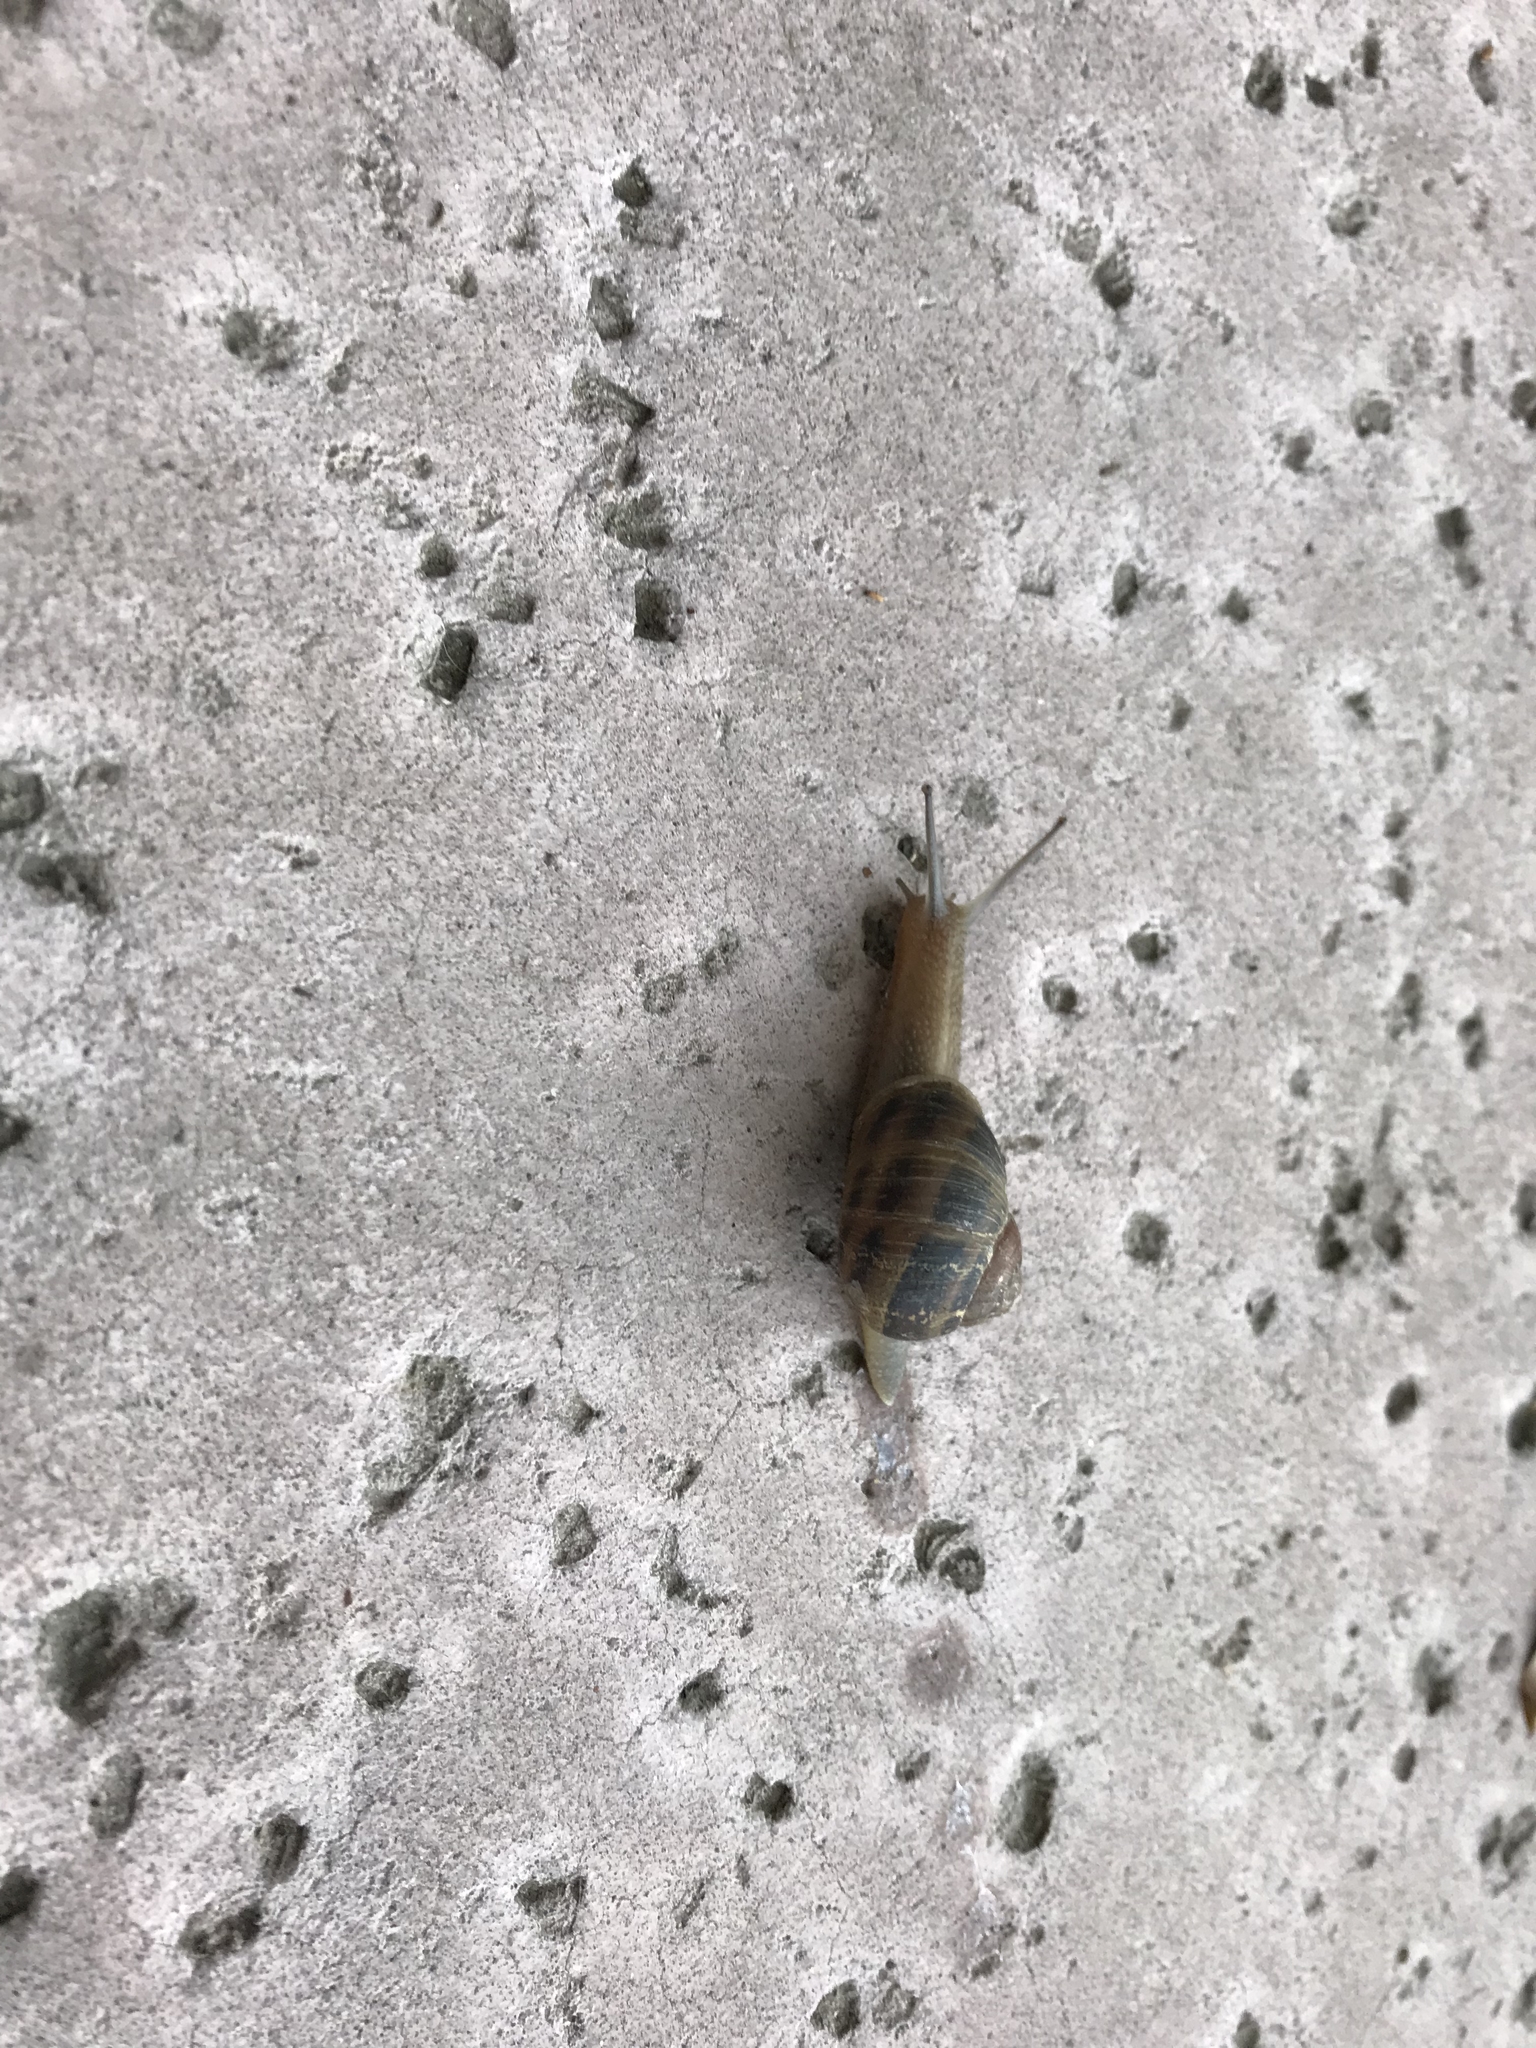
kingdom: Animalia
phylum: Mollusca
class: Gastropoda
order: Stylommatophora
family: Helicidae
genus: Cornu
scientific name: Cornu aspersum
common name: Brown garden snail
